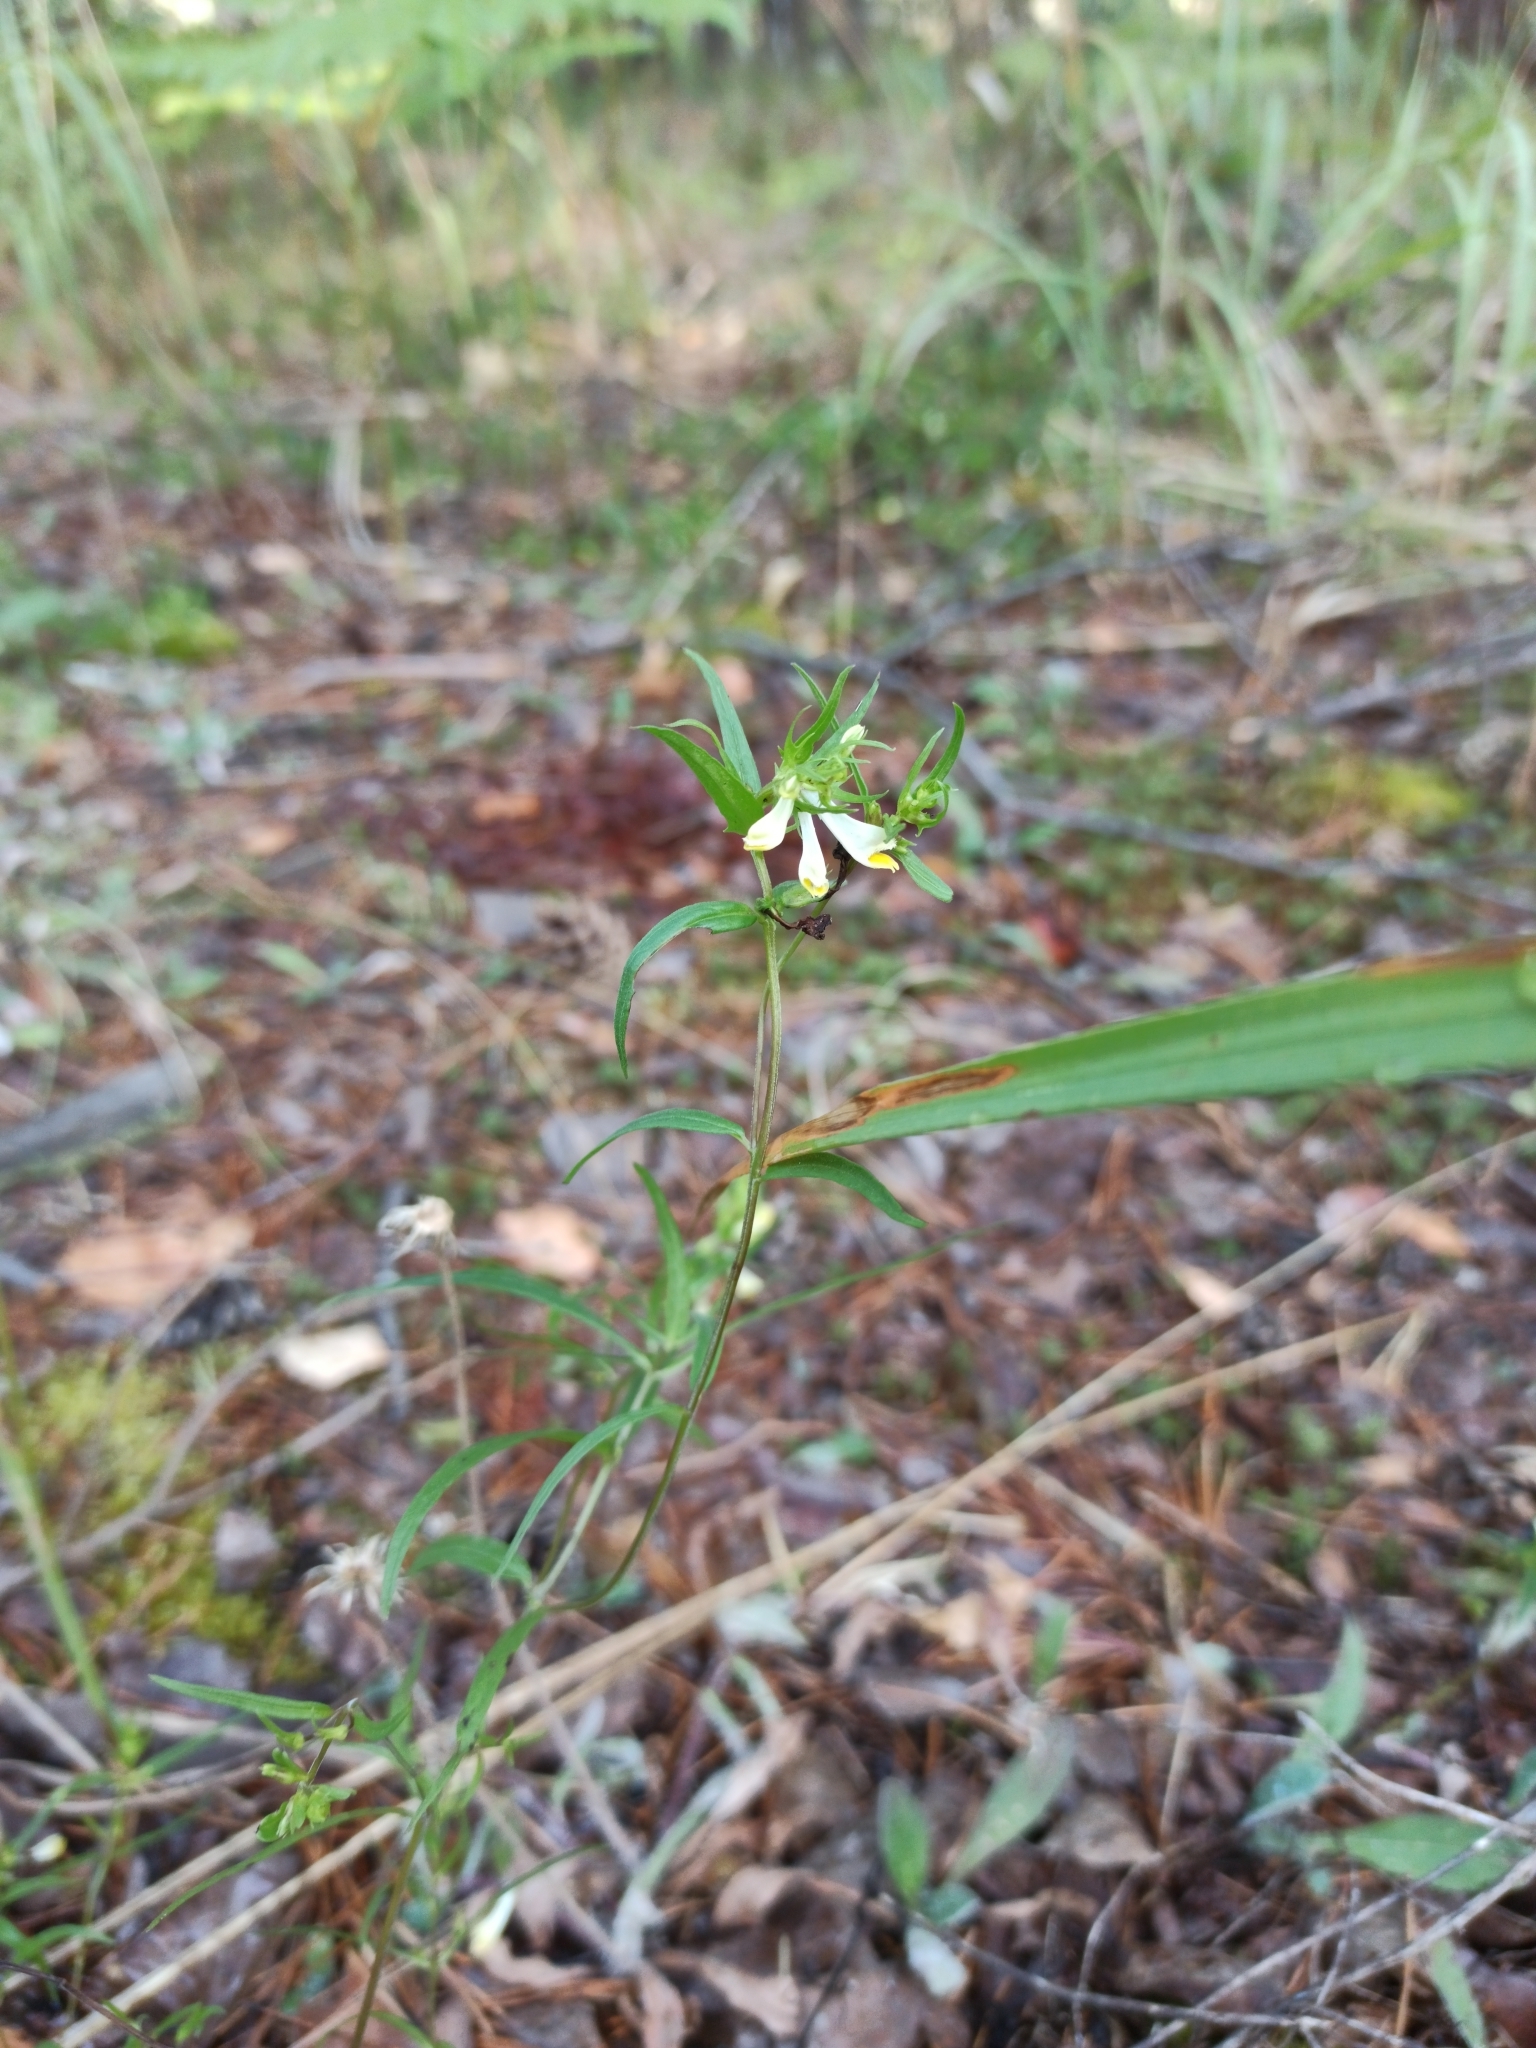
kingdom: Plantae
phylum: Tracheophyta
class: Magnoliopsida
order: Lamiales
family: Orobanchaceae
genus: Melampyrum
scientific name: Melampyrum pratense
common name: Common cow-wheat
